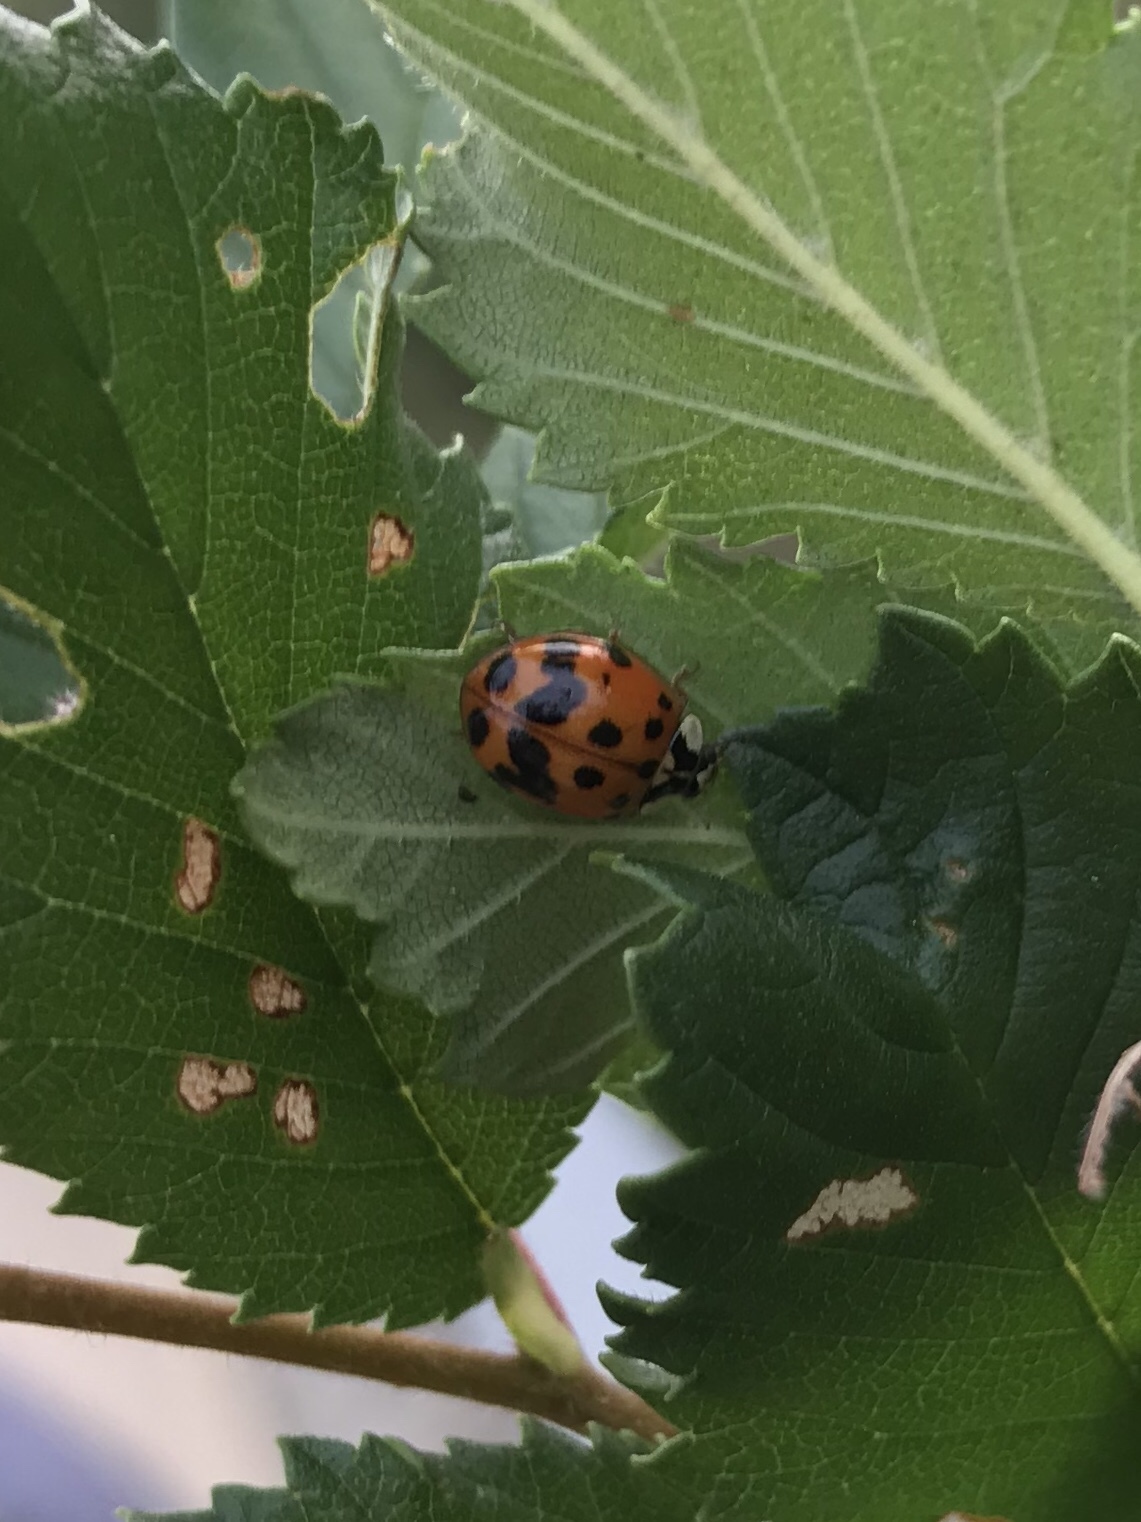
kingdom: Animalia
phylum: Arthropoda
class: Insecta
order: Coleoptera
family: Coccinellidae
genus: Harmonia
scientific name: Harmonia axyridis
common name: Harlequin ladybird
